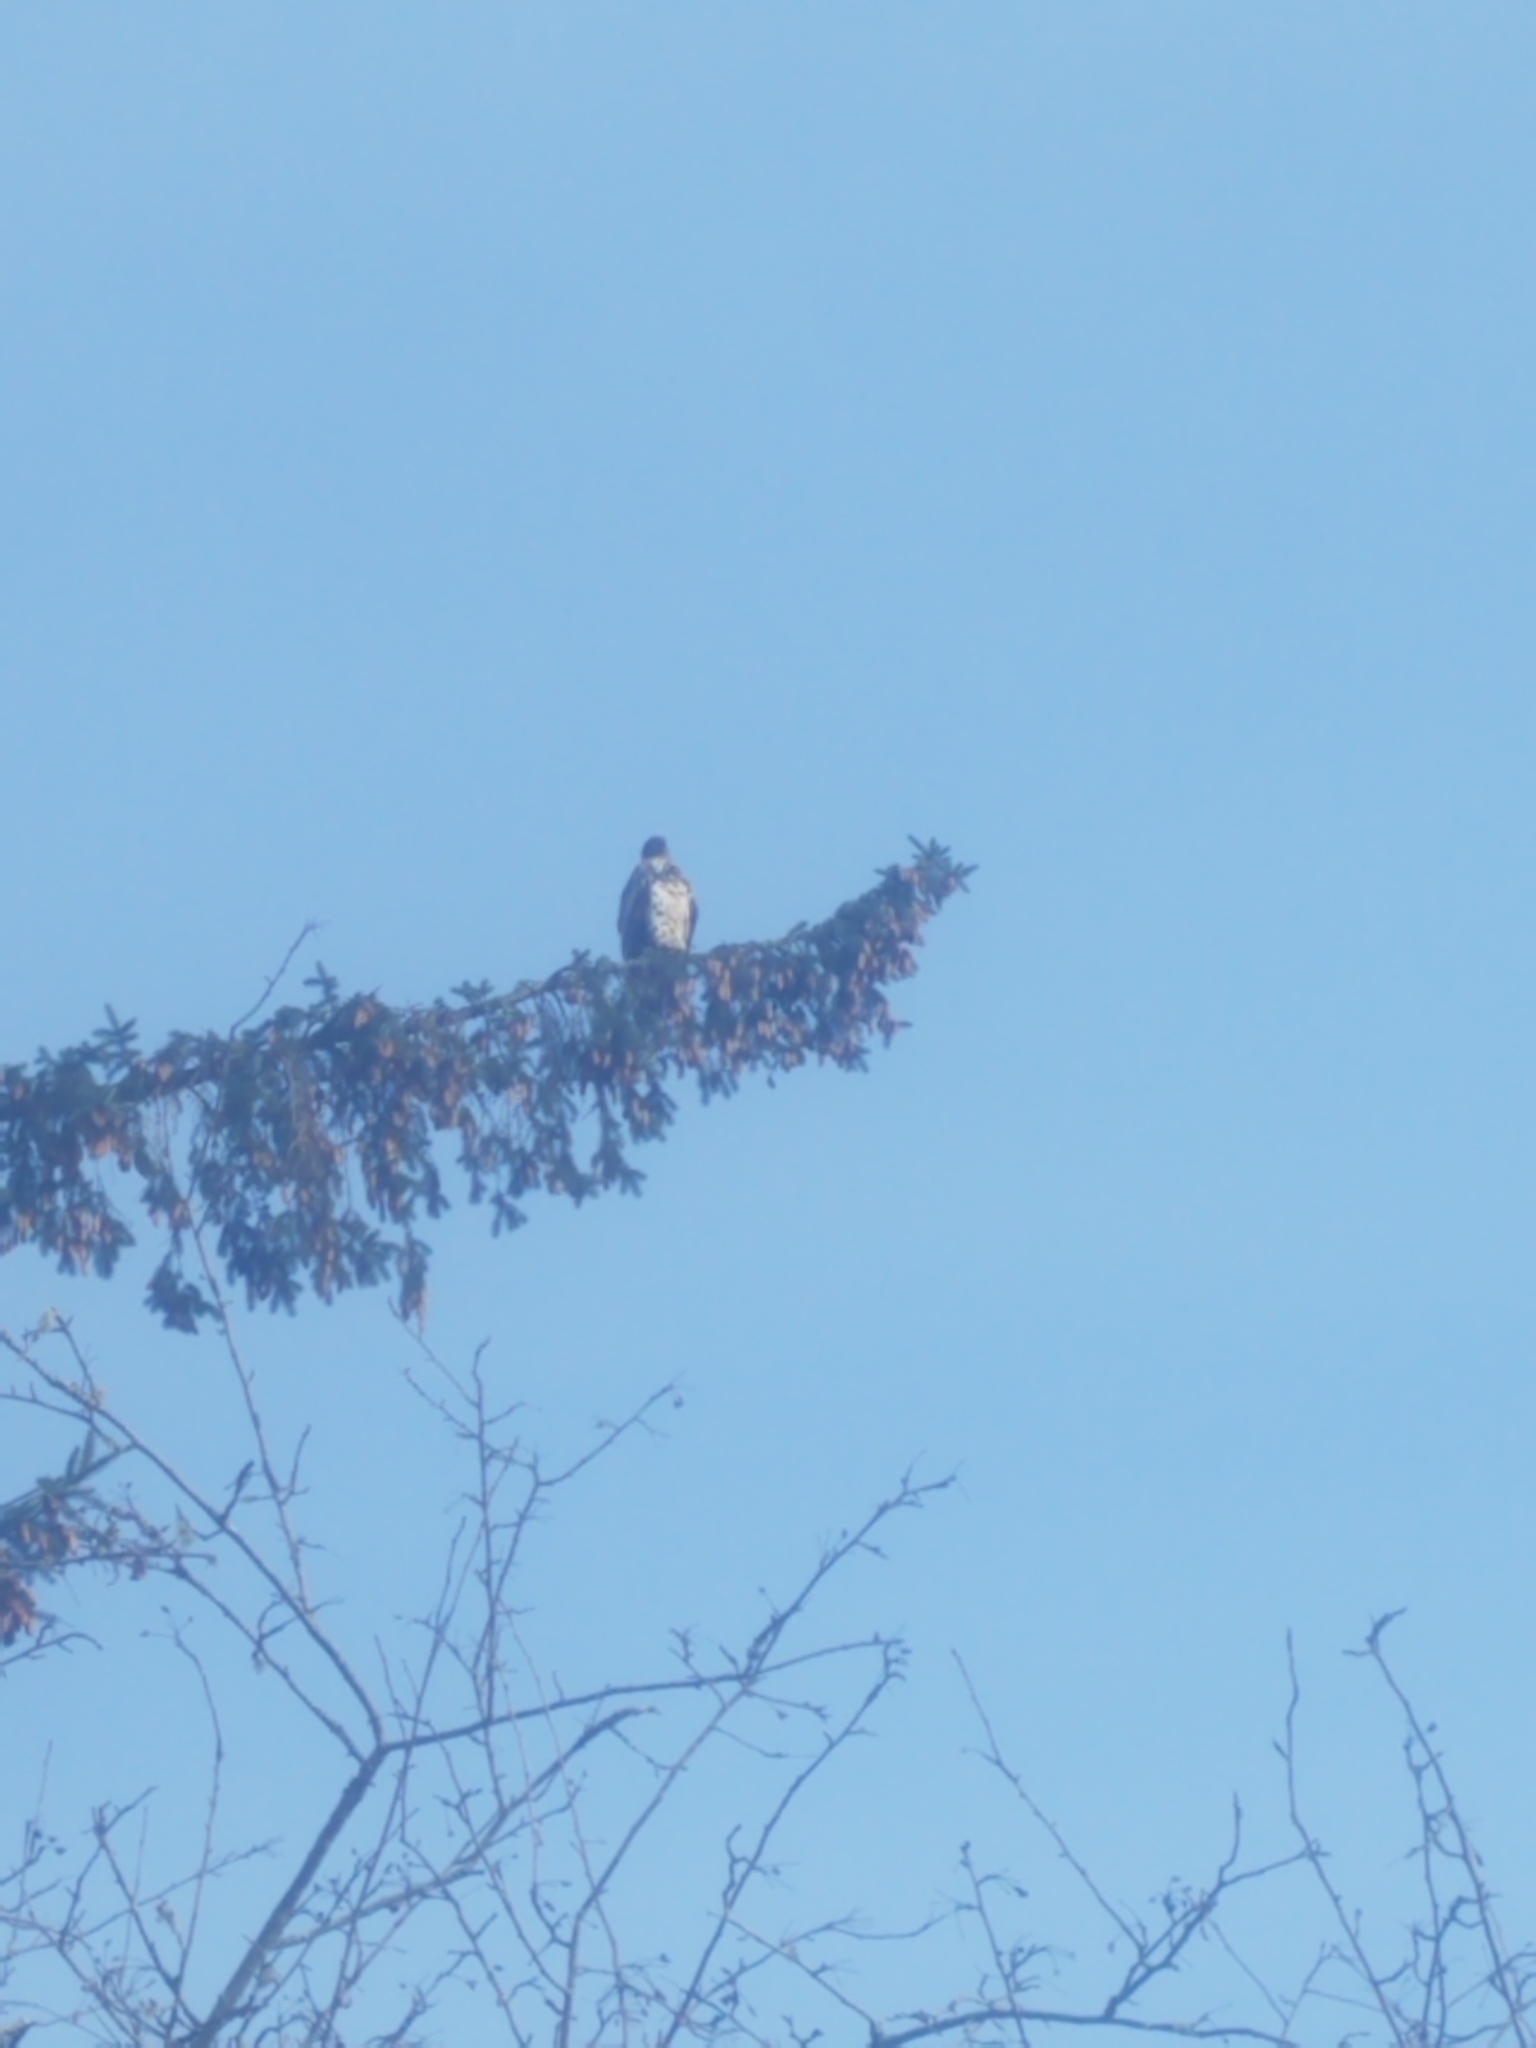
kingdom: Animalia
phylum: Chordata
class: Aves
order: Accipitriformes
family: Accipitridae
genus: Haliaeetus
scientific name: Haliaeetus leucocephalus
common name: Bald eagle
